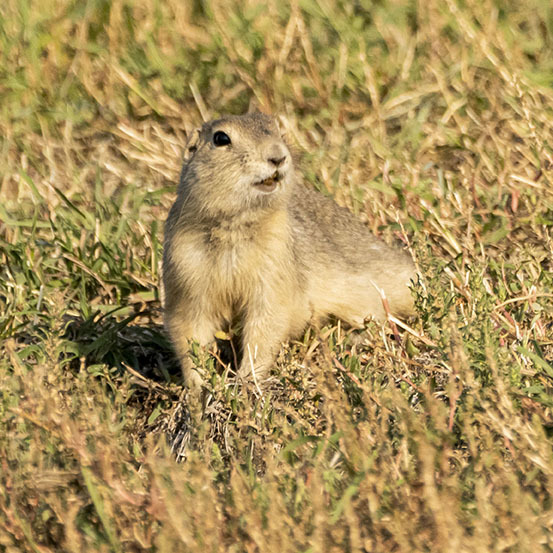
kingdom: Animalia
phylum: Chordata
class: Mammalia
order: Rodentia
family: Sciuridae
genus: Urocitellus
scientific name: Urocitellus richardsonii
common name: Richardson's ground squirrel
